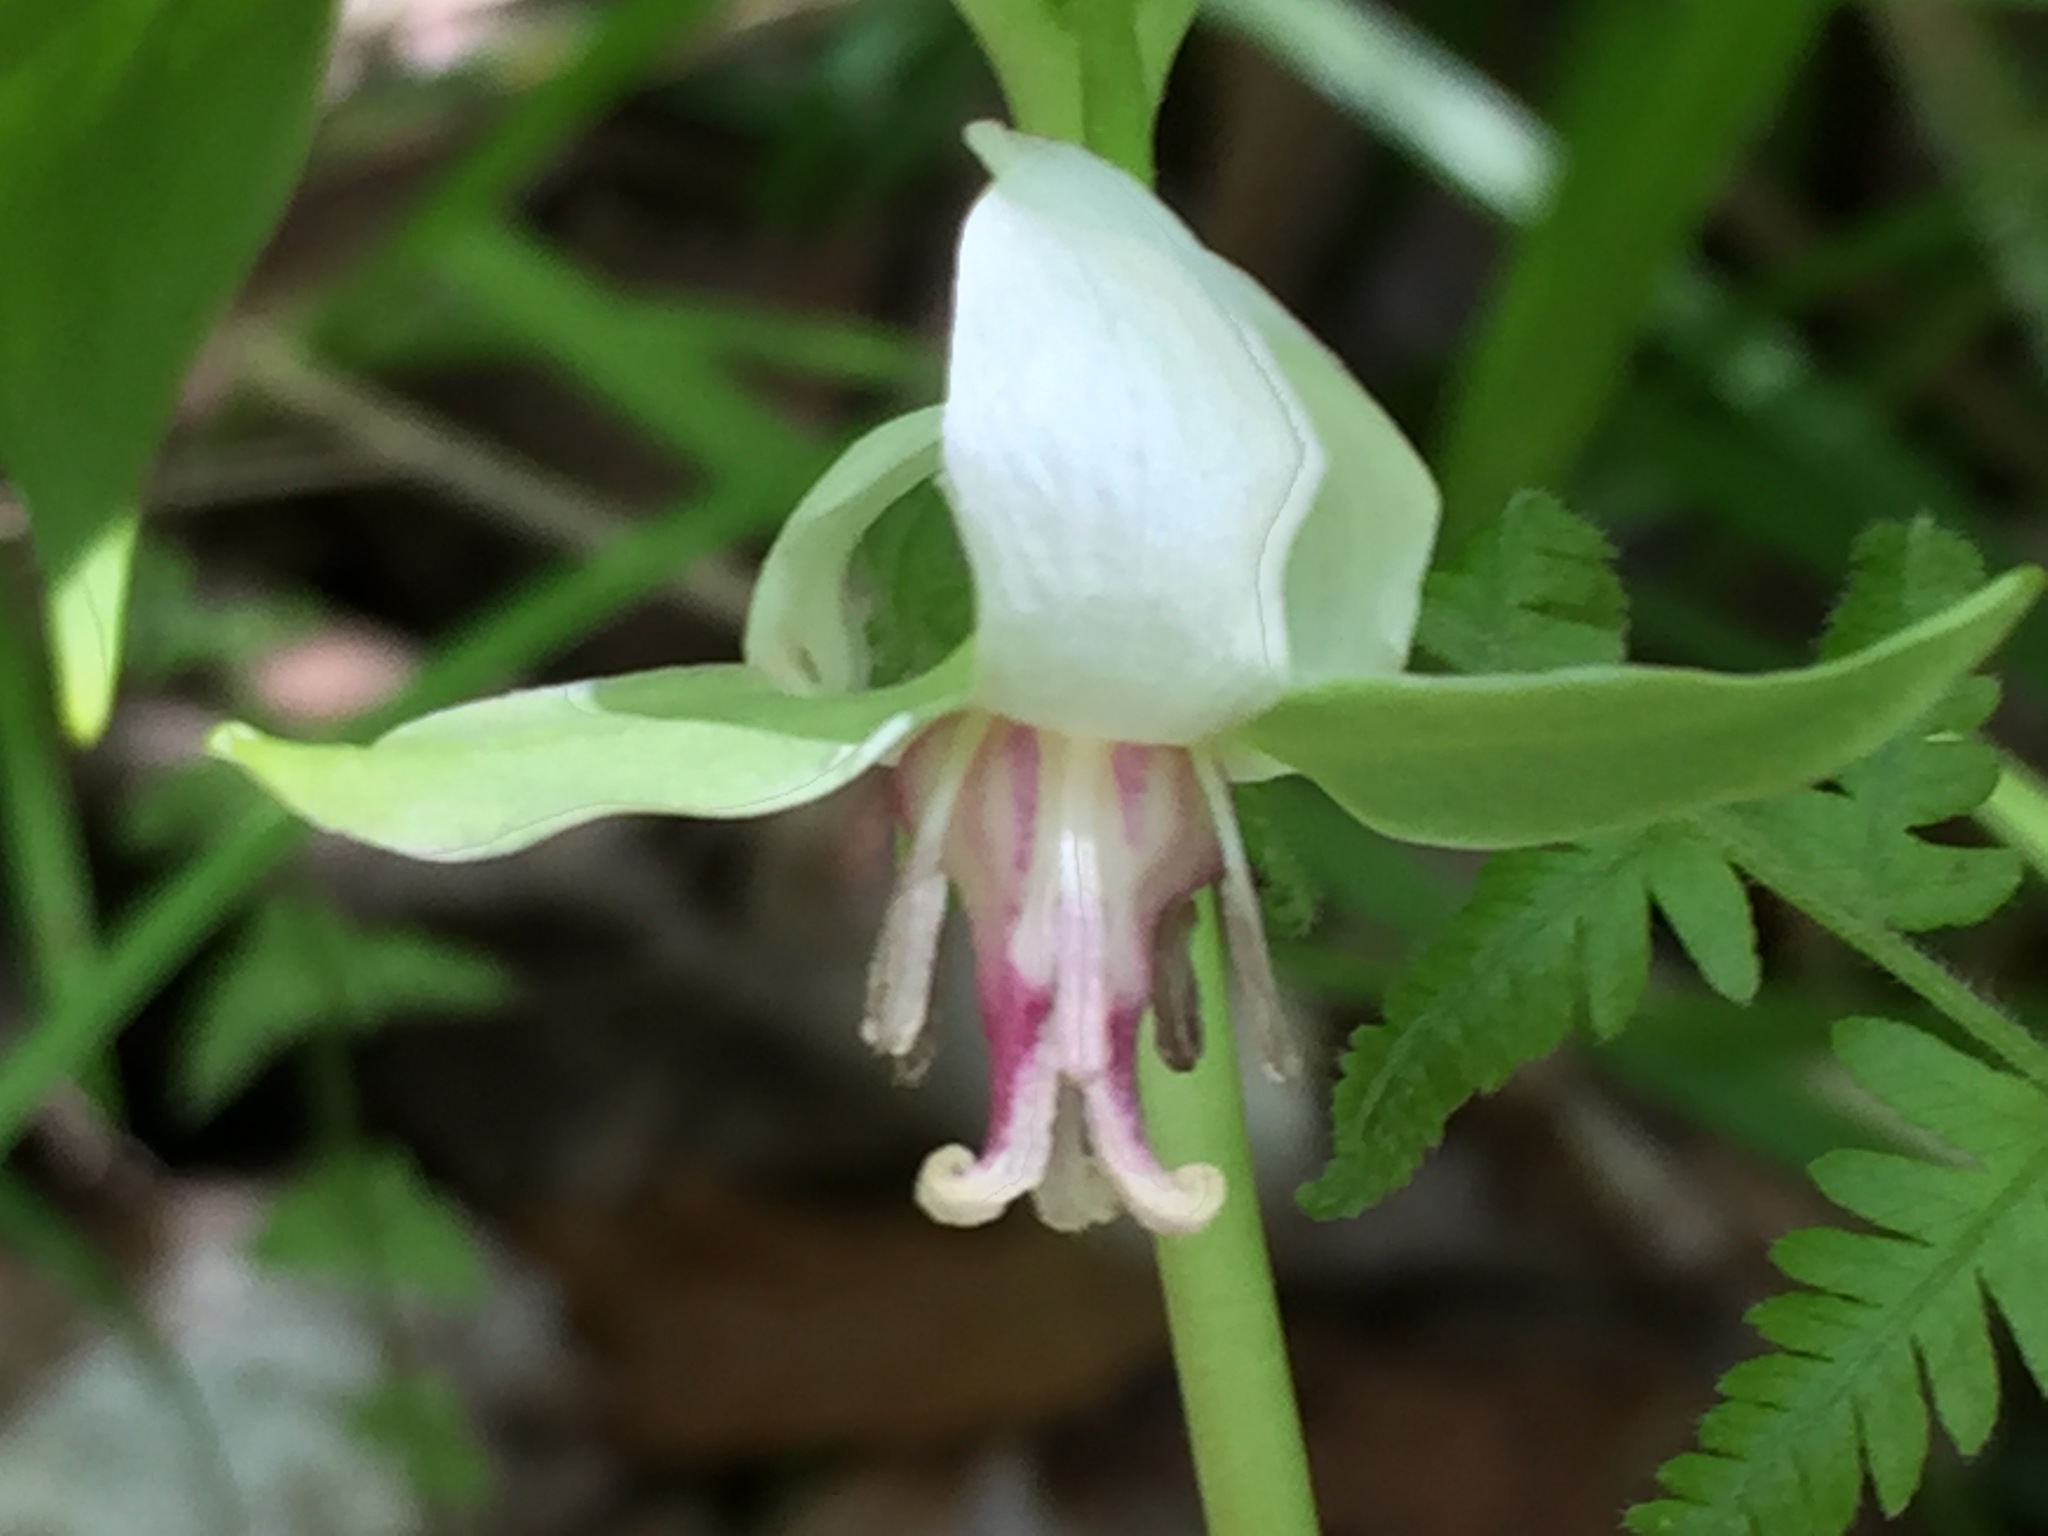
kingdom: Plantae
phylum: Tracheophyta
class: Liliopsida
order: Liliales
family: Melanthiaceae
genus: Trillium
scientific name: Trillium cernuum
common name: Nodding trillium
